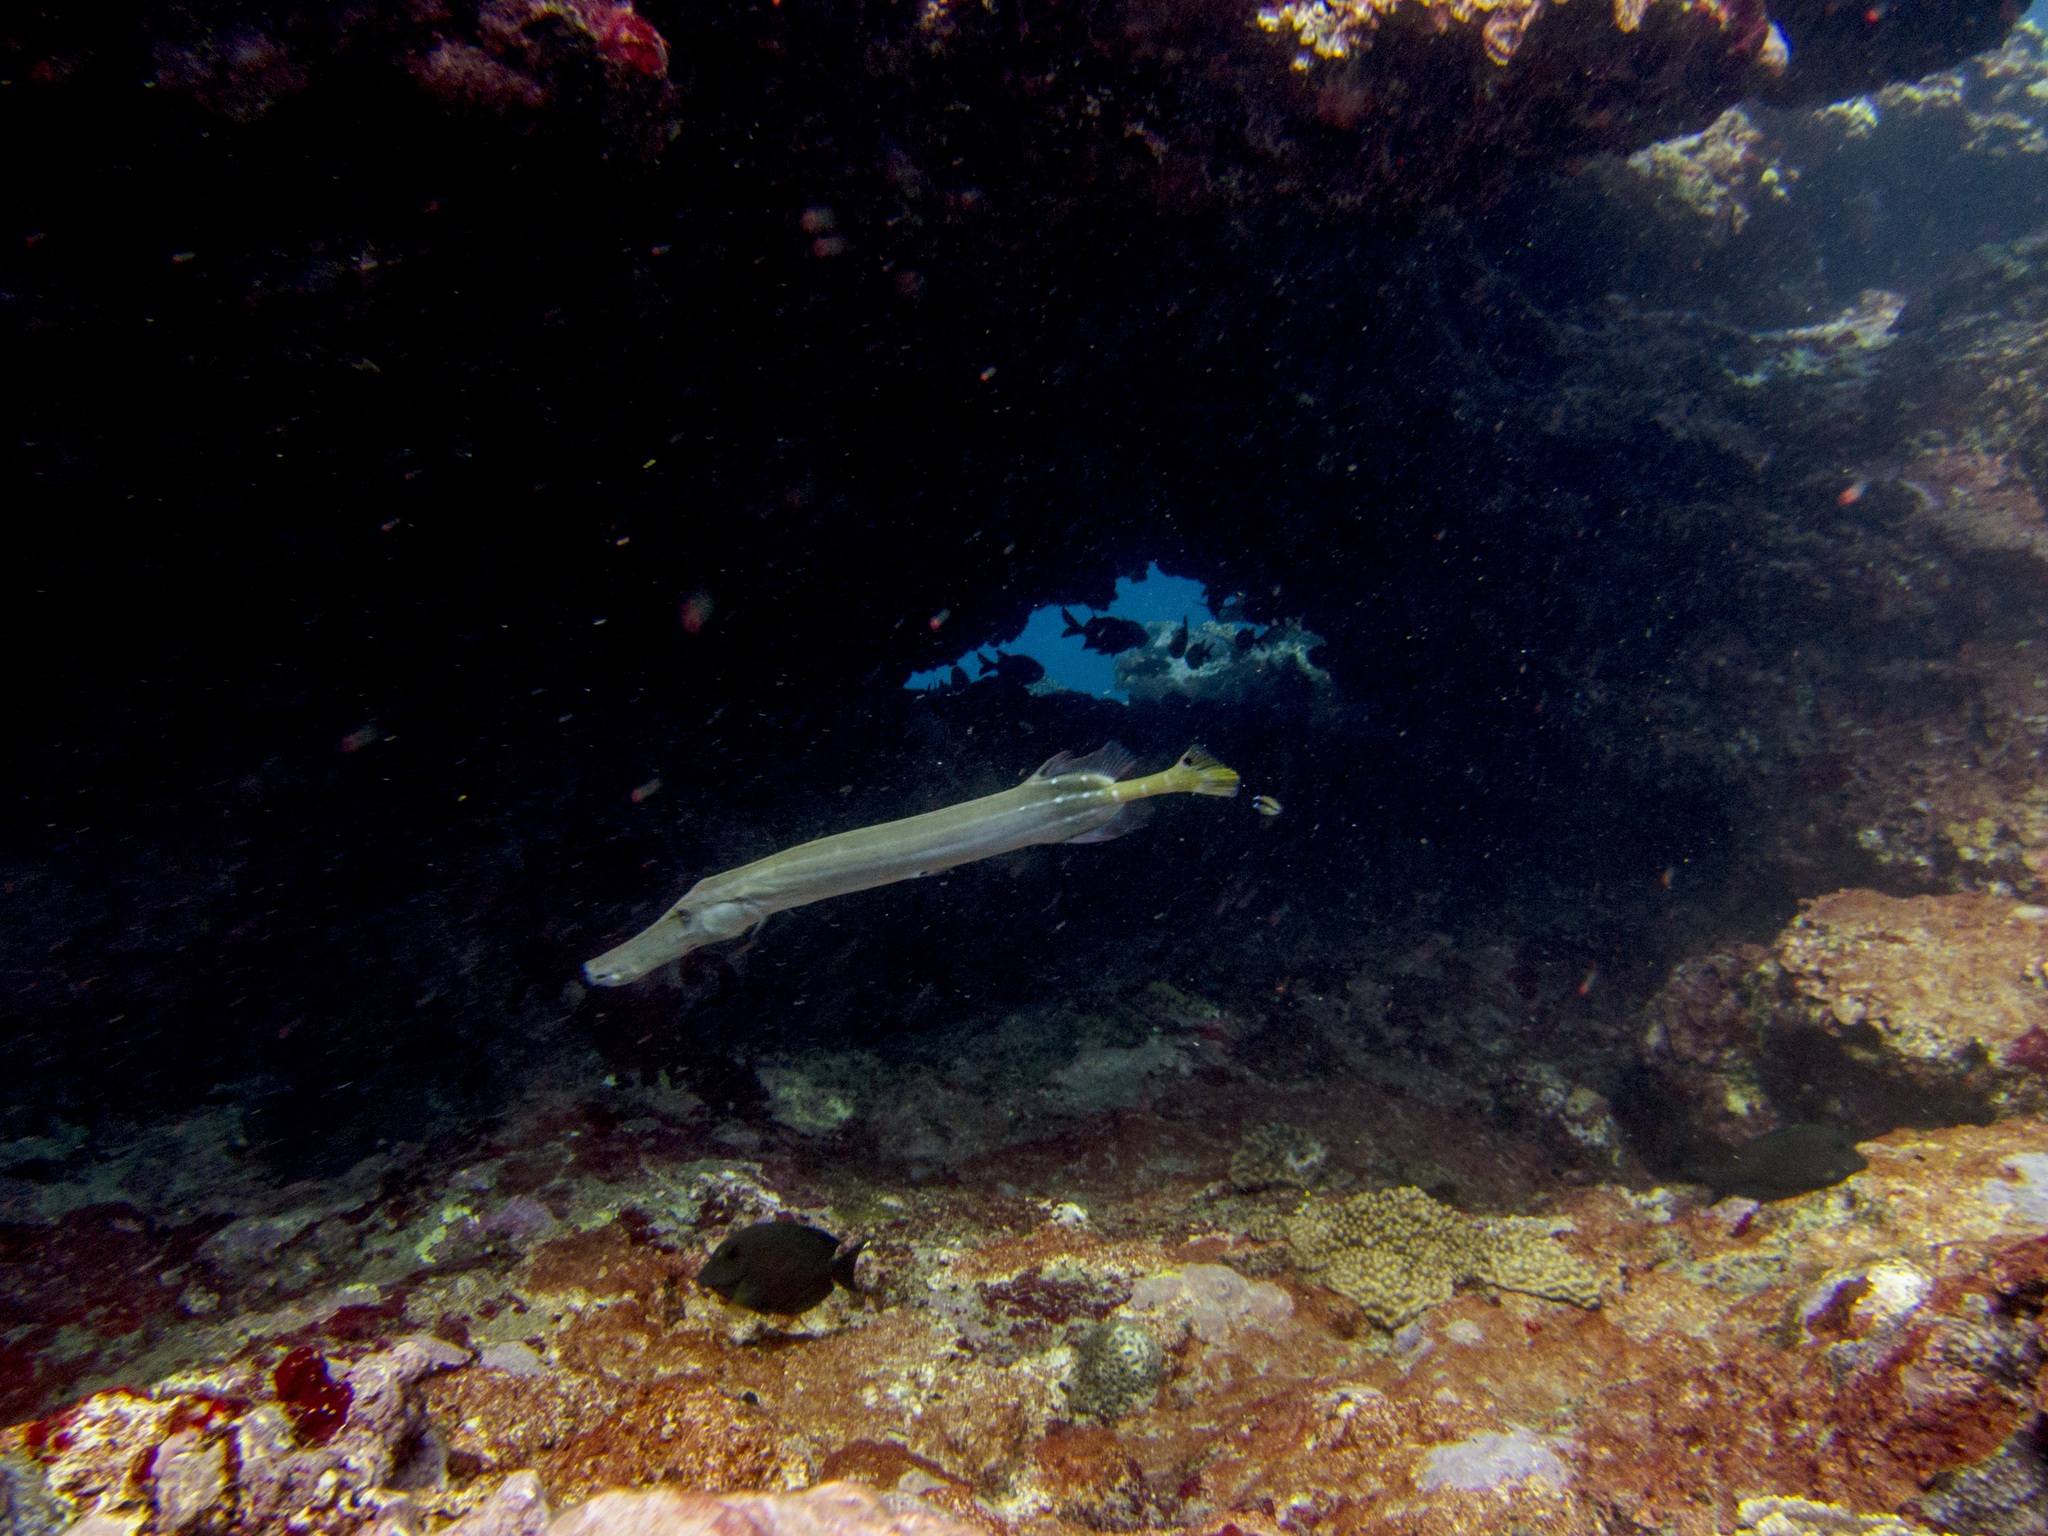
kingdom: Animalia
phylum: Chordata
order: Syngnathiformes
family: Aulostomidae
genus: Aulostomus
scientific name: Aulostomus chinensis
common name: Chinese trumpetfish
